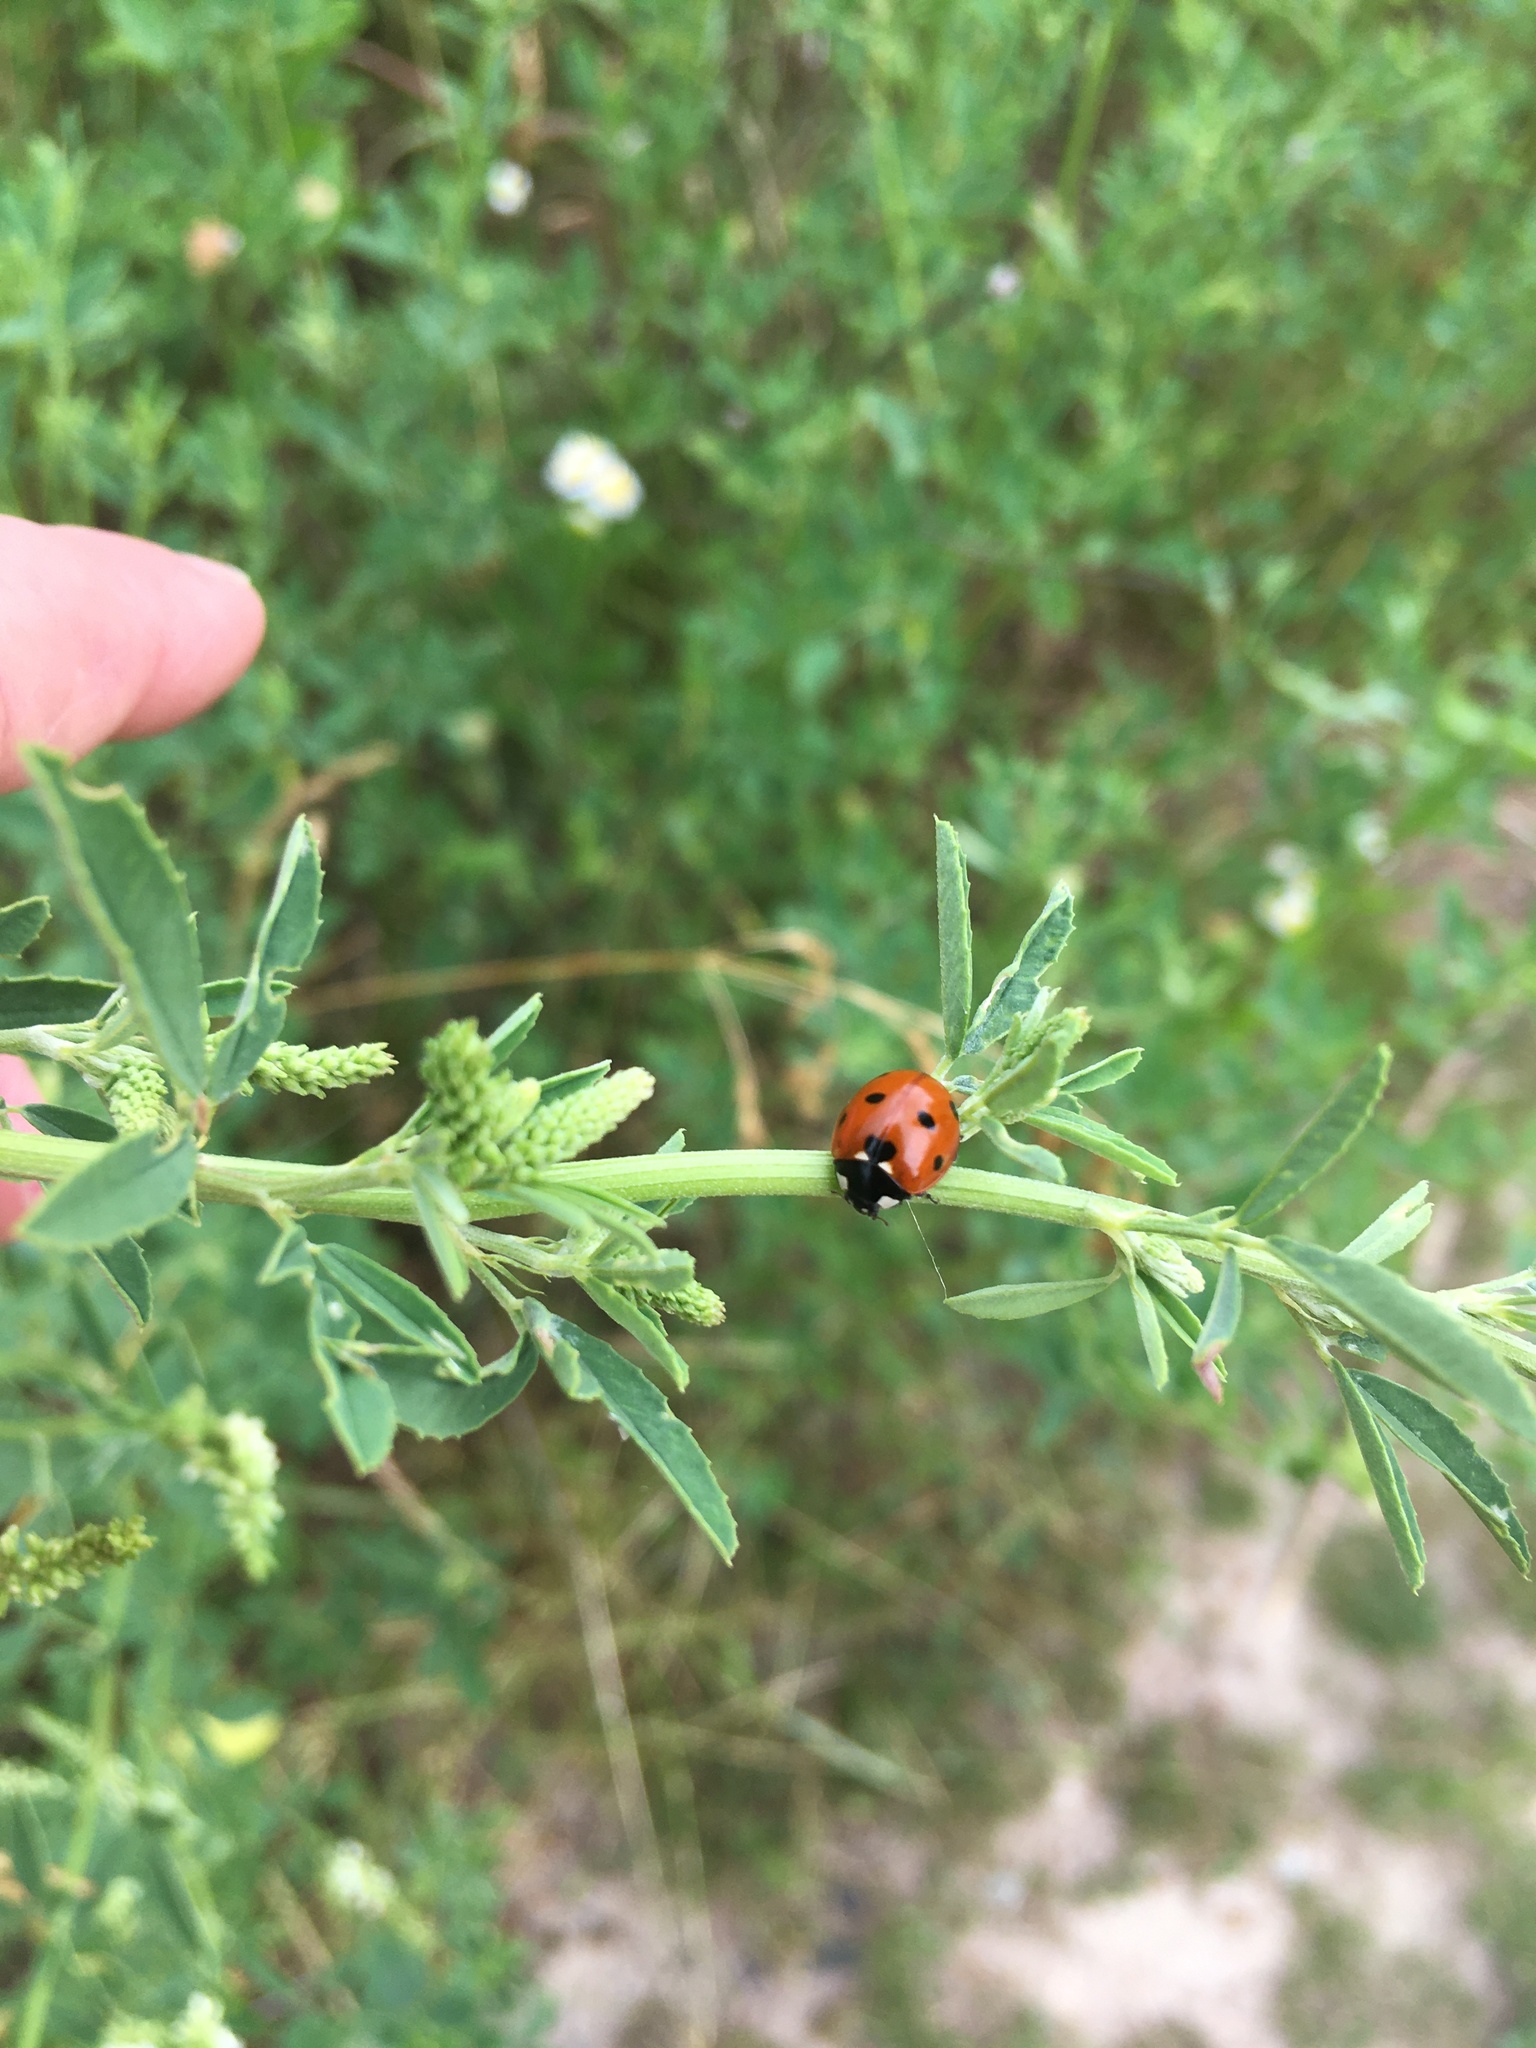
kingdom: Animalia
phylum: Arthropoda
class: Insecta
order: Coleoptera
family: Coccinellidae
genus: Coccinella
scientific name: Coccinella septempunctata
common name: Sevenspotted lady beetle
